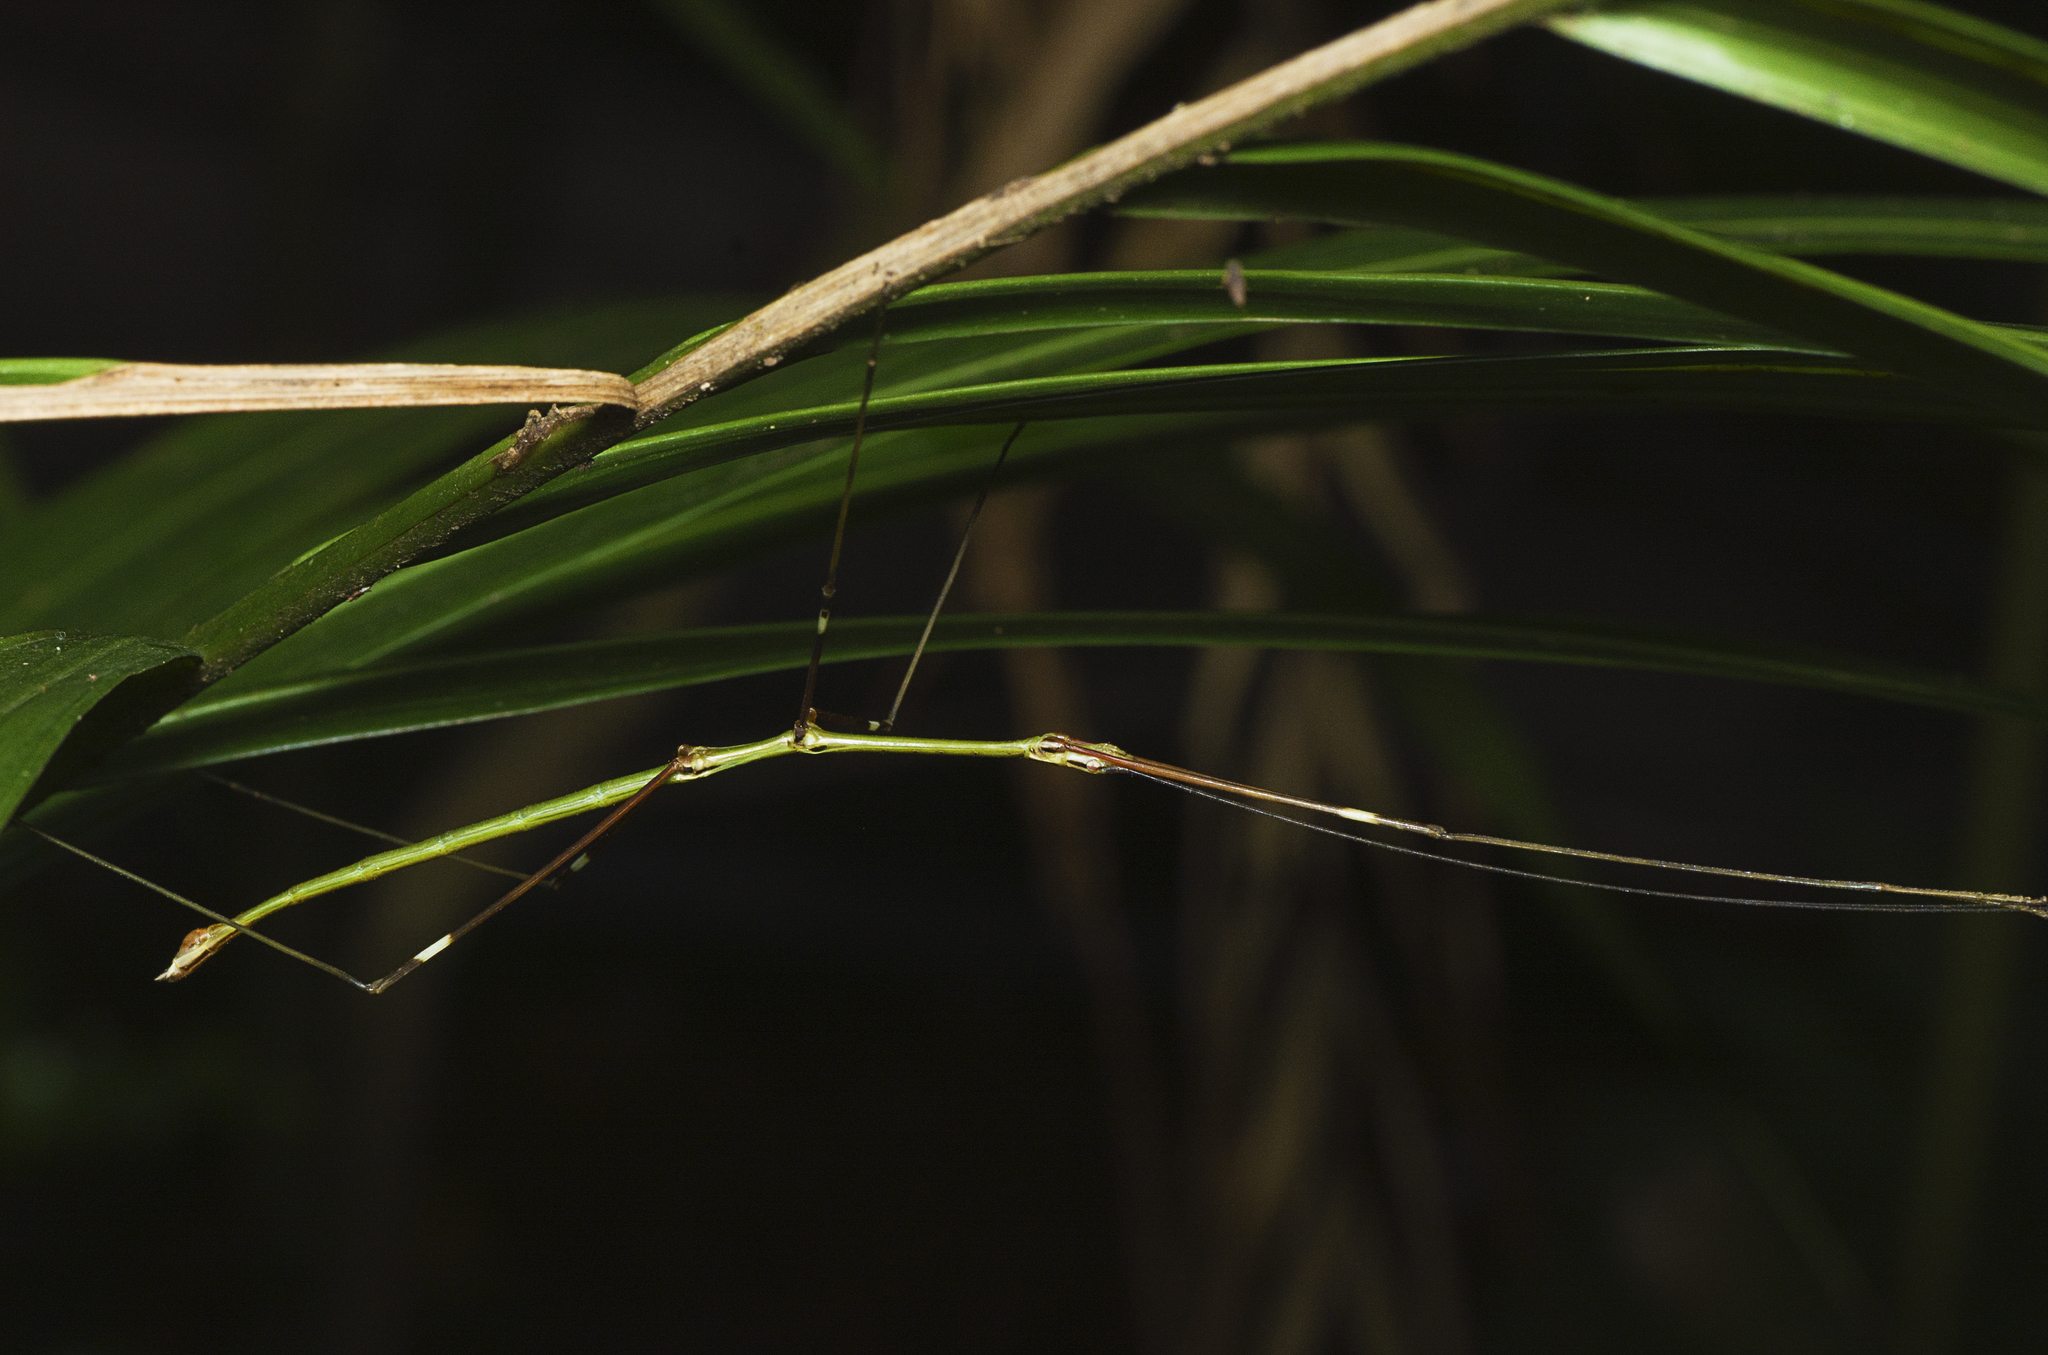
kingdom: Animalia
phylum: Arthropoda
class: Insecta
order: Phasmida
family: Lonchodidae
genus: Candovia
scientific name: Candovia annulata
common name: Banded-legged stick-insect
